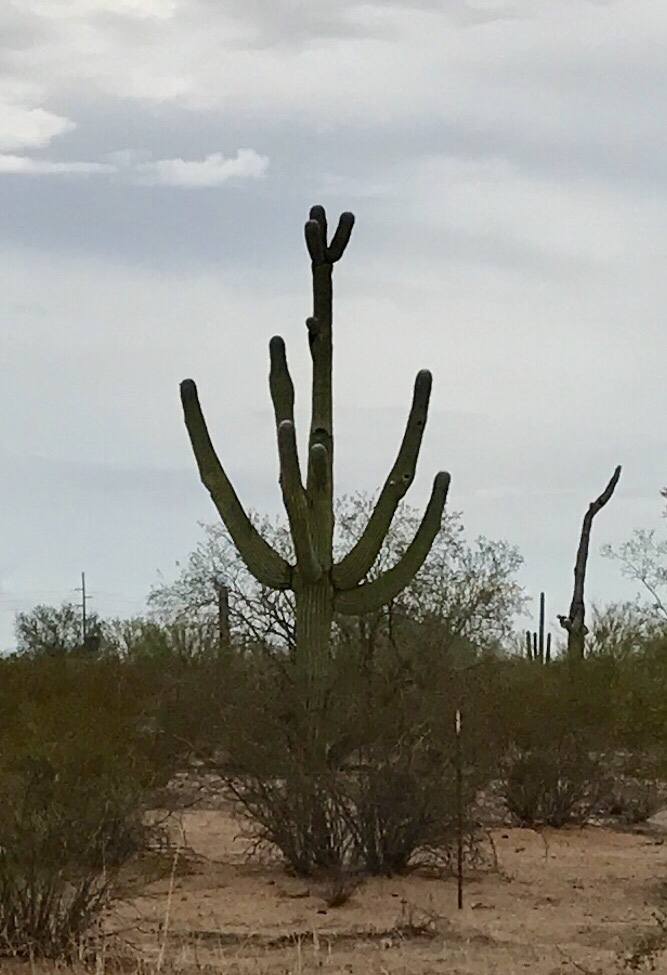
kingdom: Plantae
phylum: Tracheophyta
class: Magnoliopsida
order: Caryophyllales
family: Cactaceae
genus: Carnegiea
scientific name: Carnegiea gigantea
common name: Saguaro
